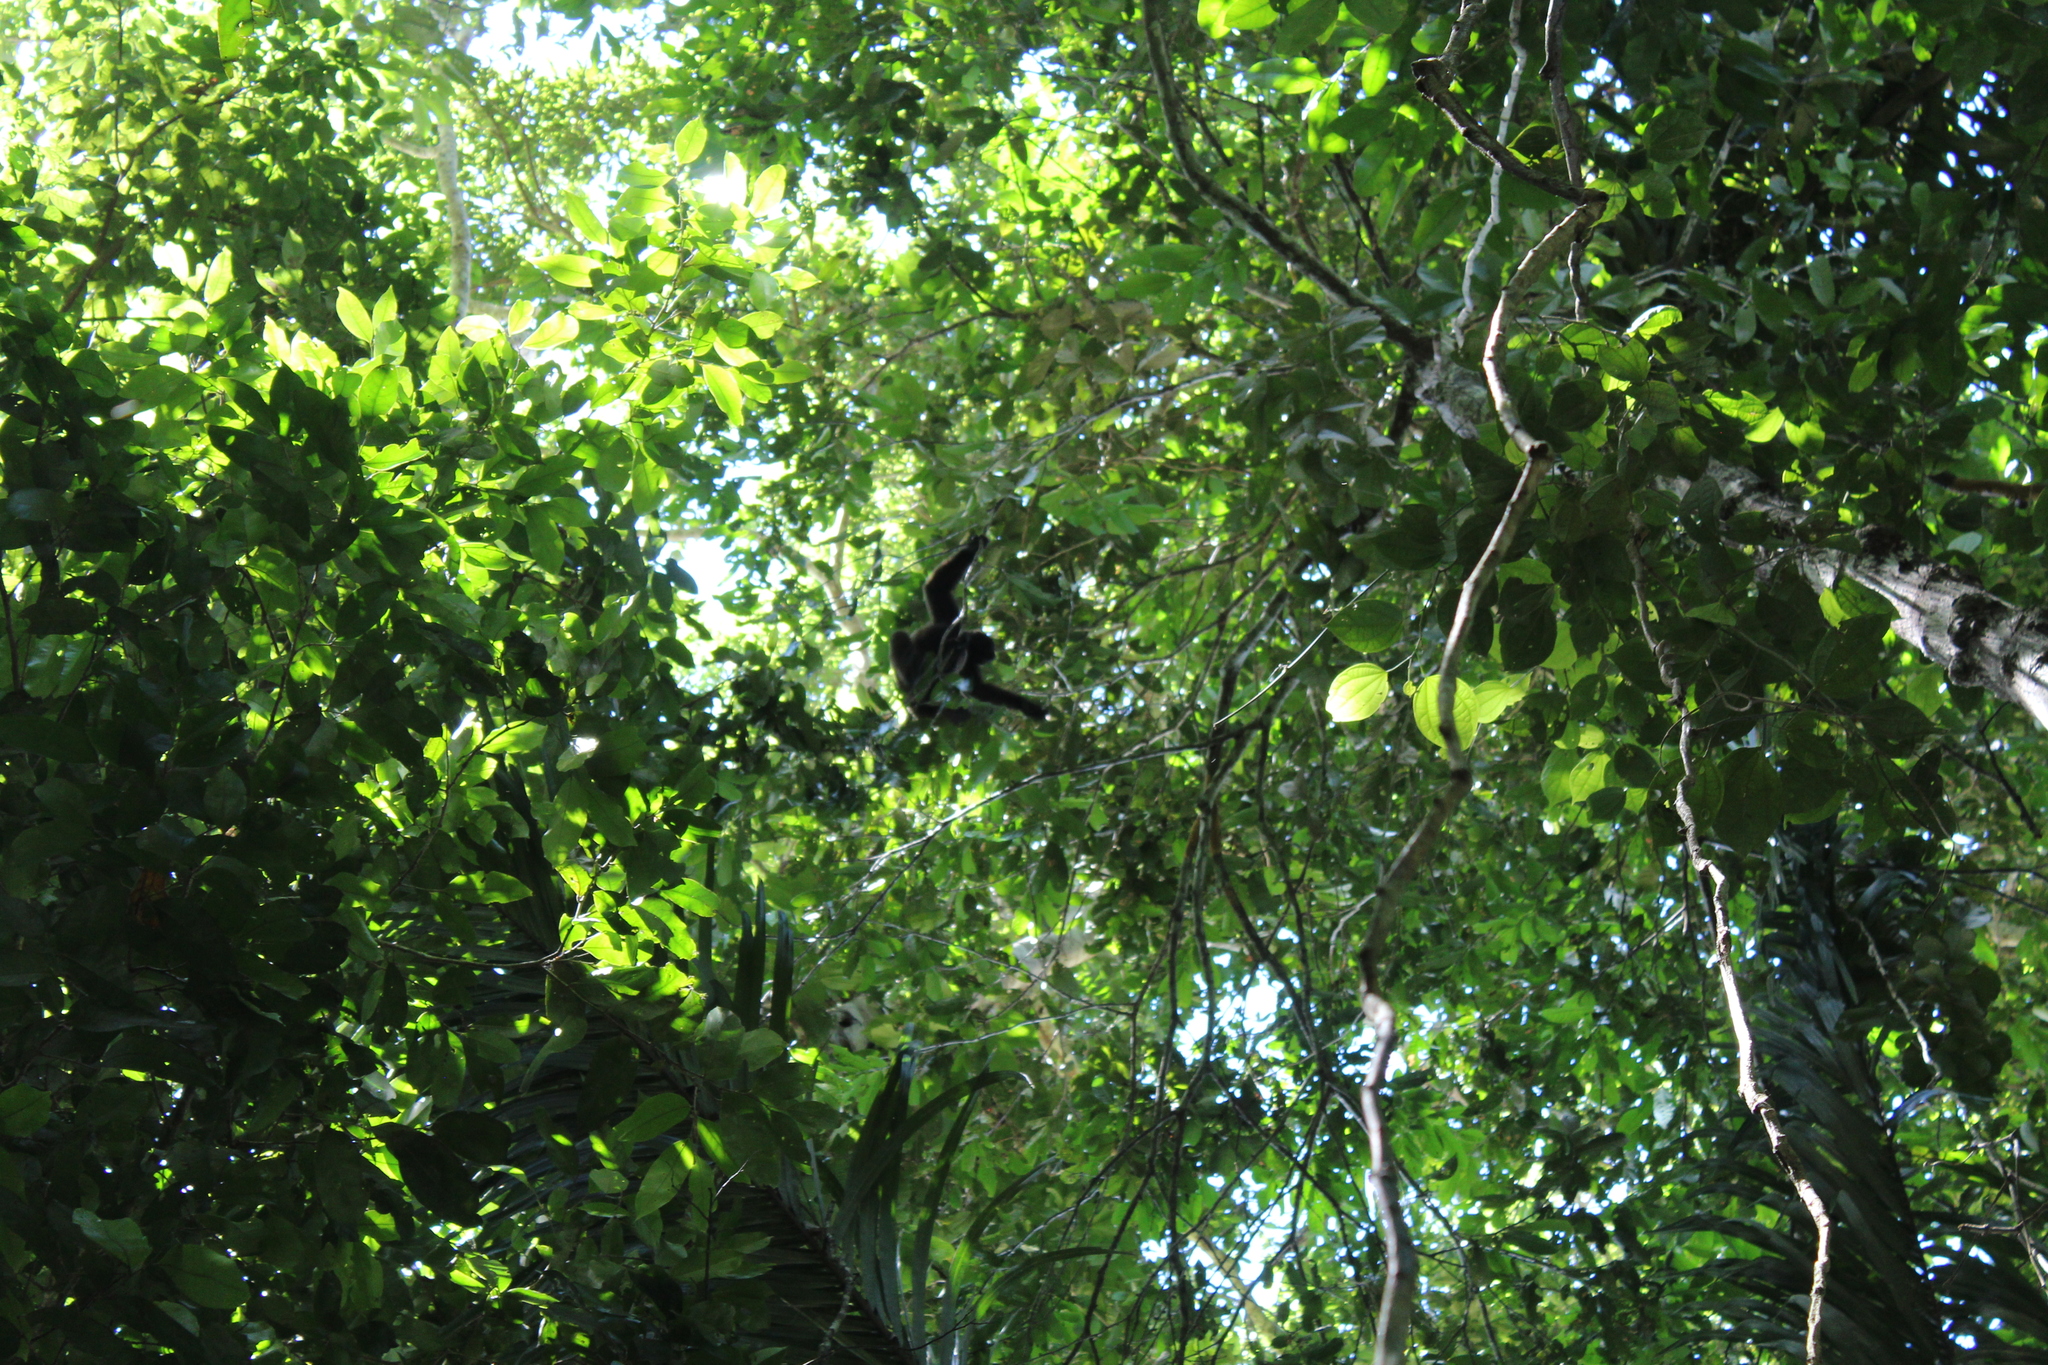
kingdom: Animalia
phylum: Chordata
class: Mammalia
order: Primates
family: Atelidae
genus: Lagothrix
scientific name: Lagothrix lagothricha
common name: Brown woolly monkey
